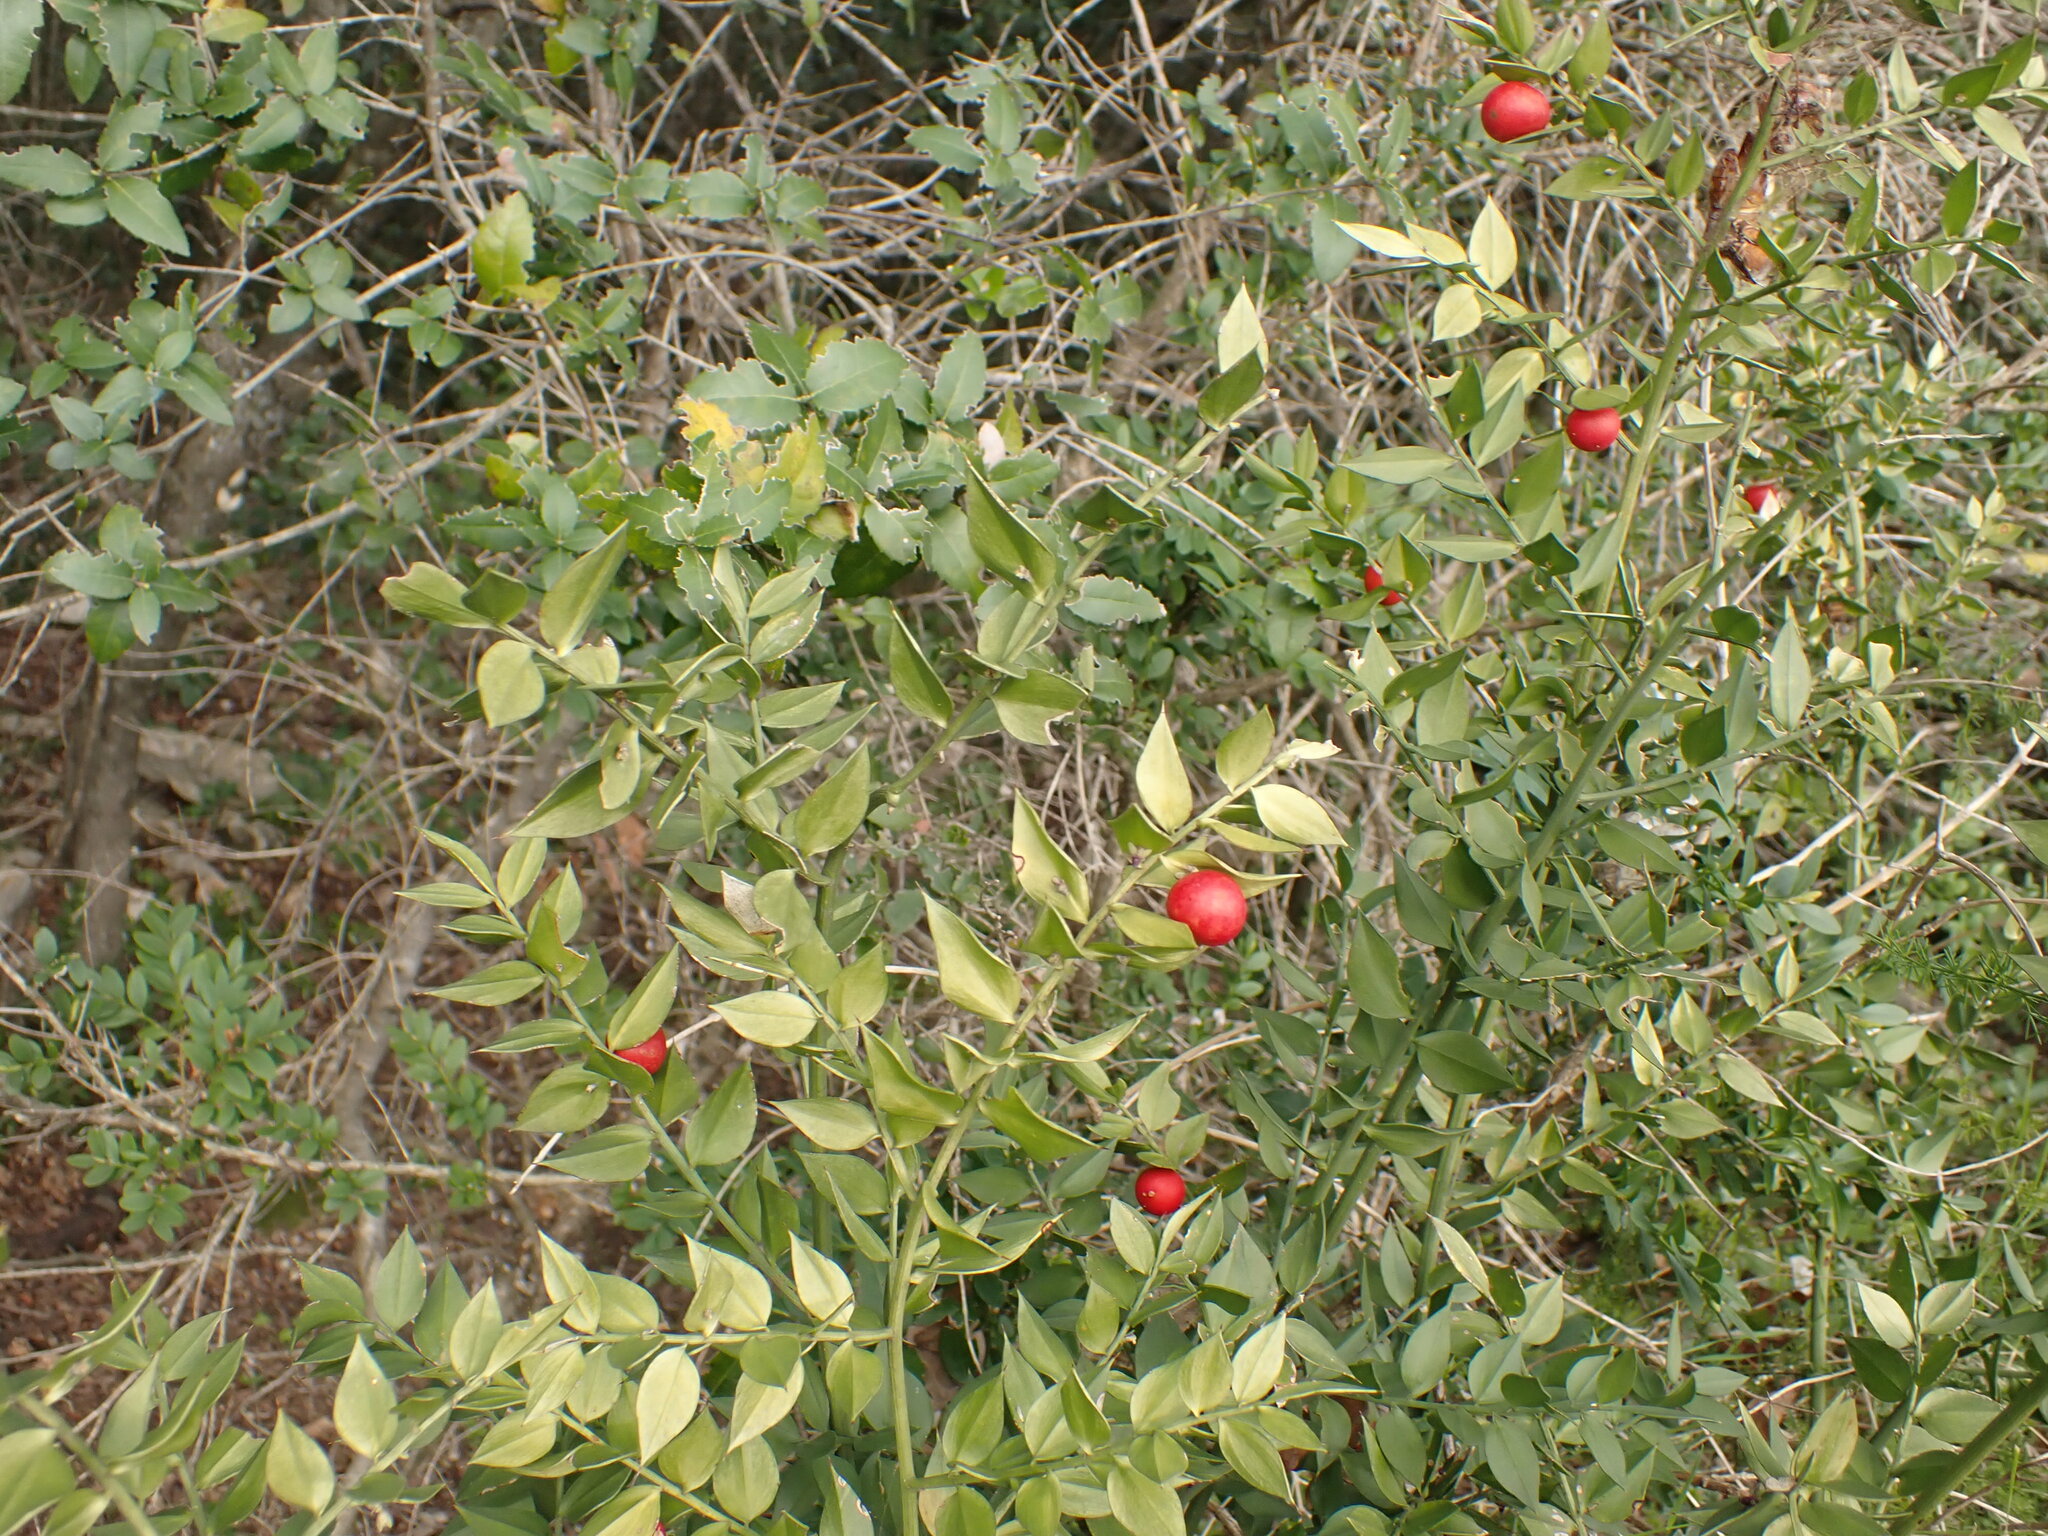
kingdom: Plantae
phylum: Tracheophyta
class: Liliopsida
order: Asparagales
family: Asparagaceae
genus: Ruscus
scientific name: Ruscus aculeatus
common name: Butcher's-broom
